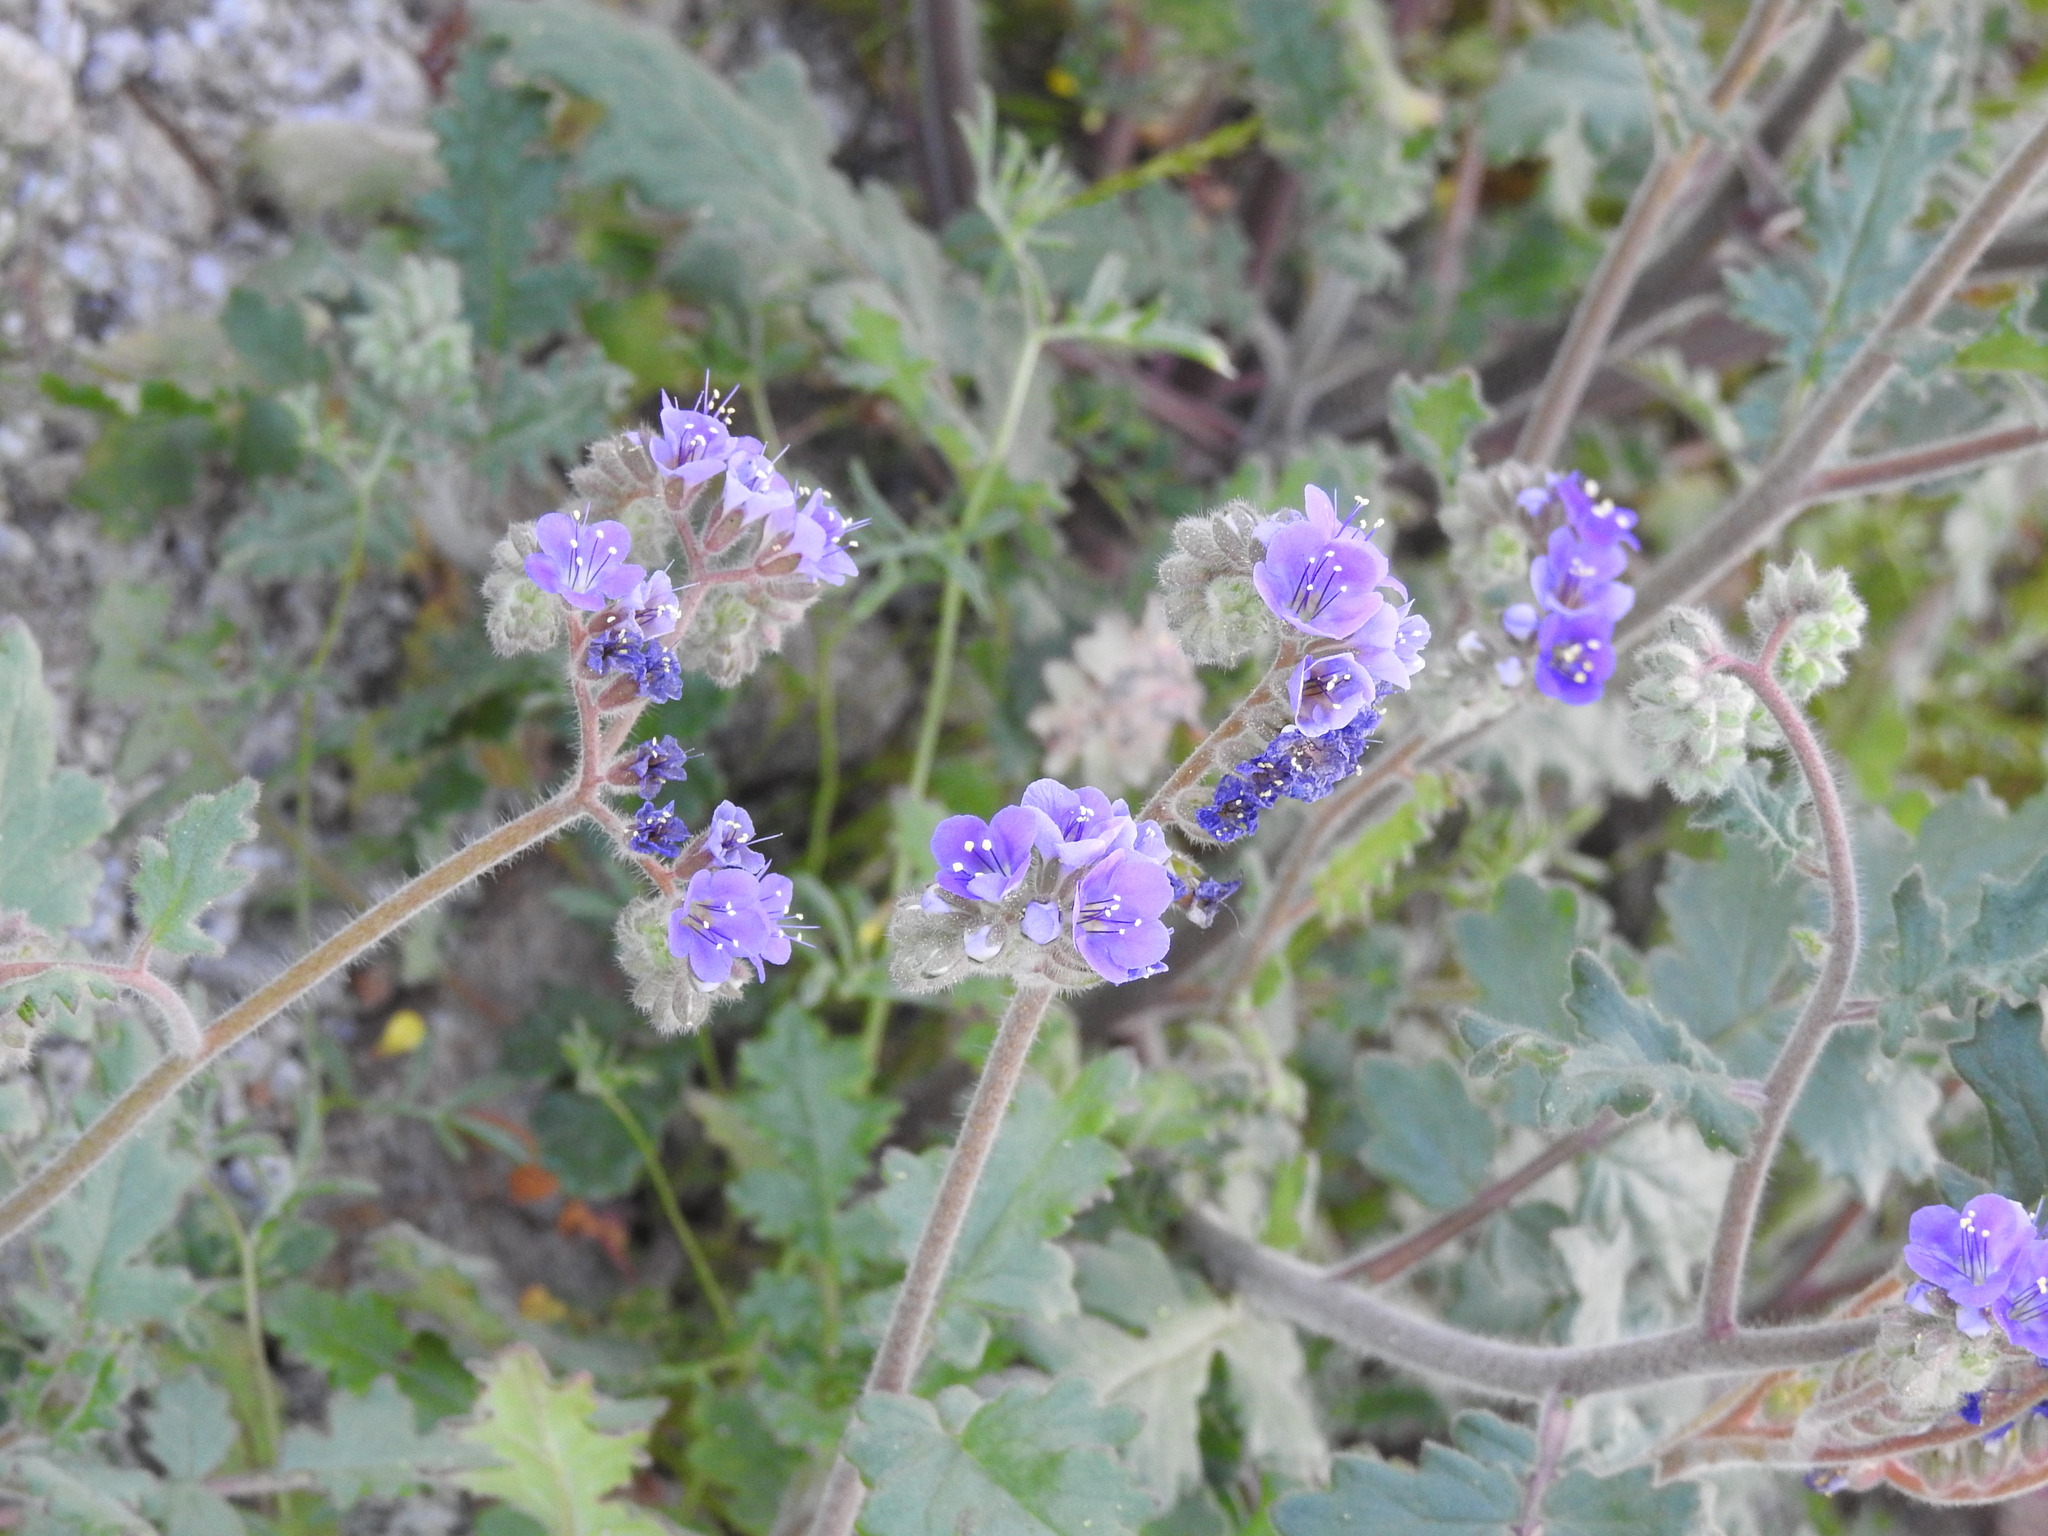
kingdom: Plantae
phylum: Tracheophyta
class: Magnoliopsida
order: Boraginales
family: Hydrophyllaceae
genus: Phacelia
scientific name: Phacelia crenulata
